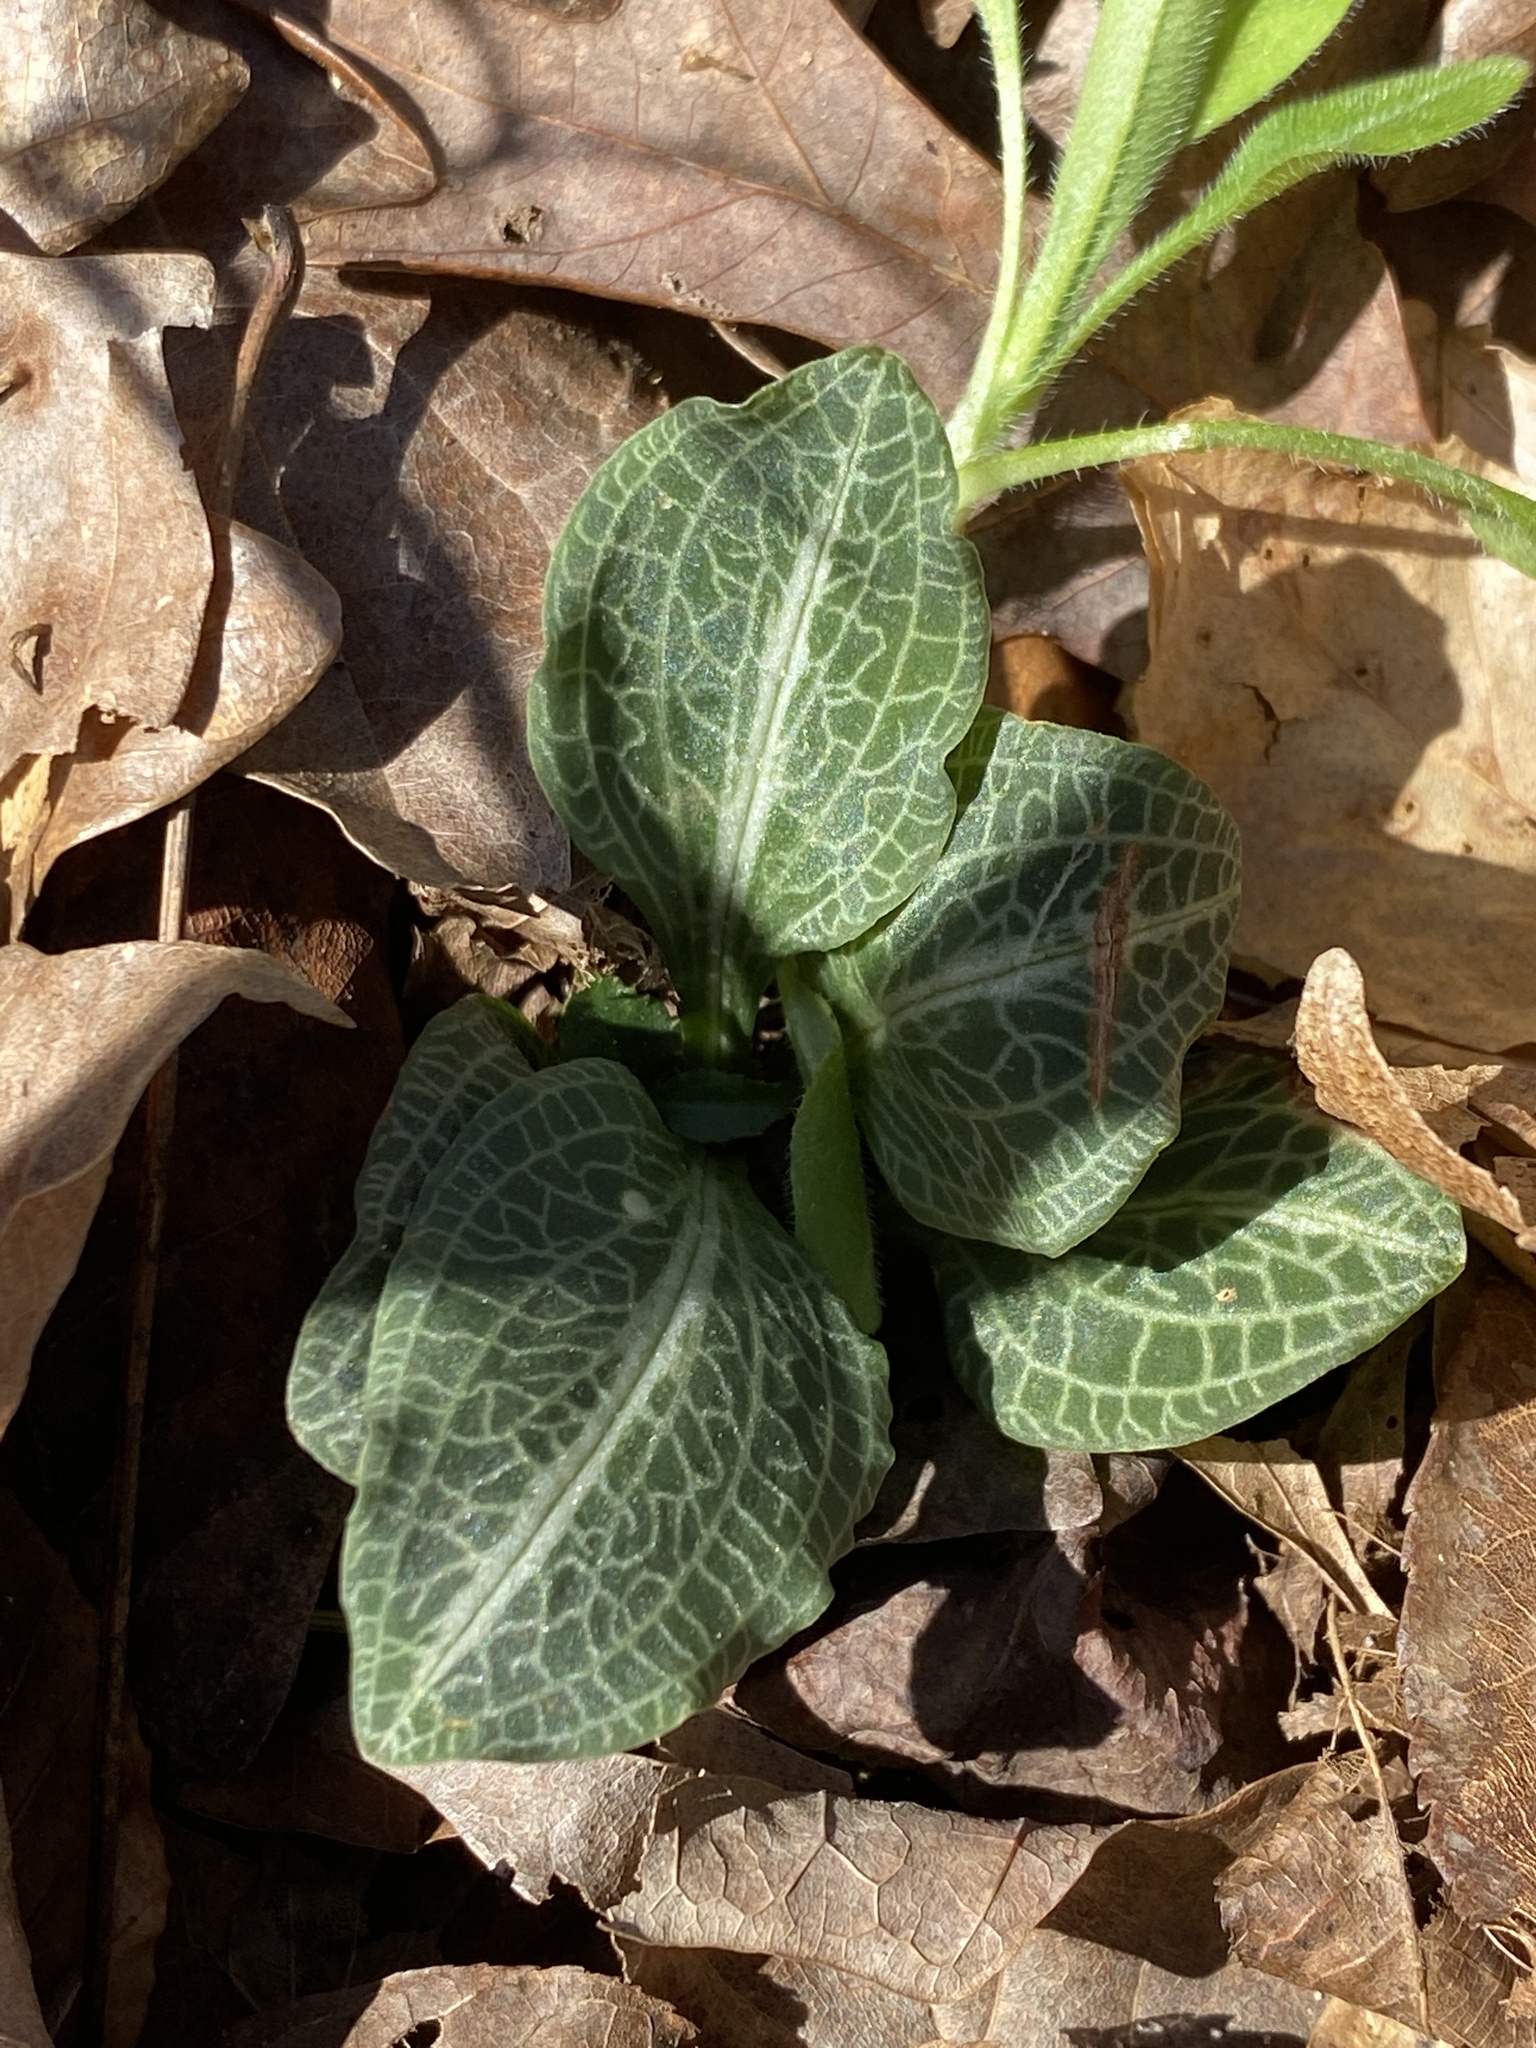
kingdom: Plantae
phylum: Tracheophyta
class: Liliopsida
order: Asparagales
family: Orchidaceae
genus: Goodyera
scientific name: Goodyera pubescens
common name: Downy rattlesnake-plantain
